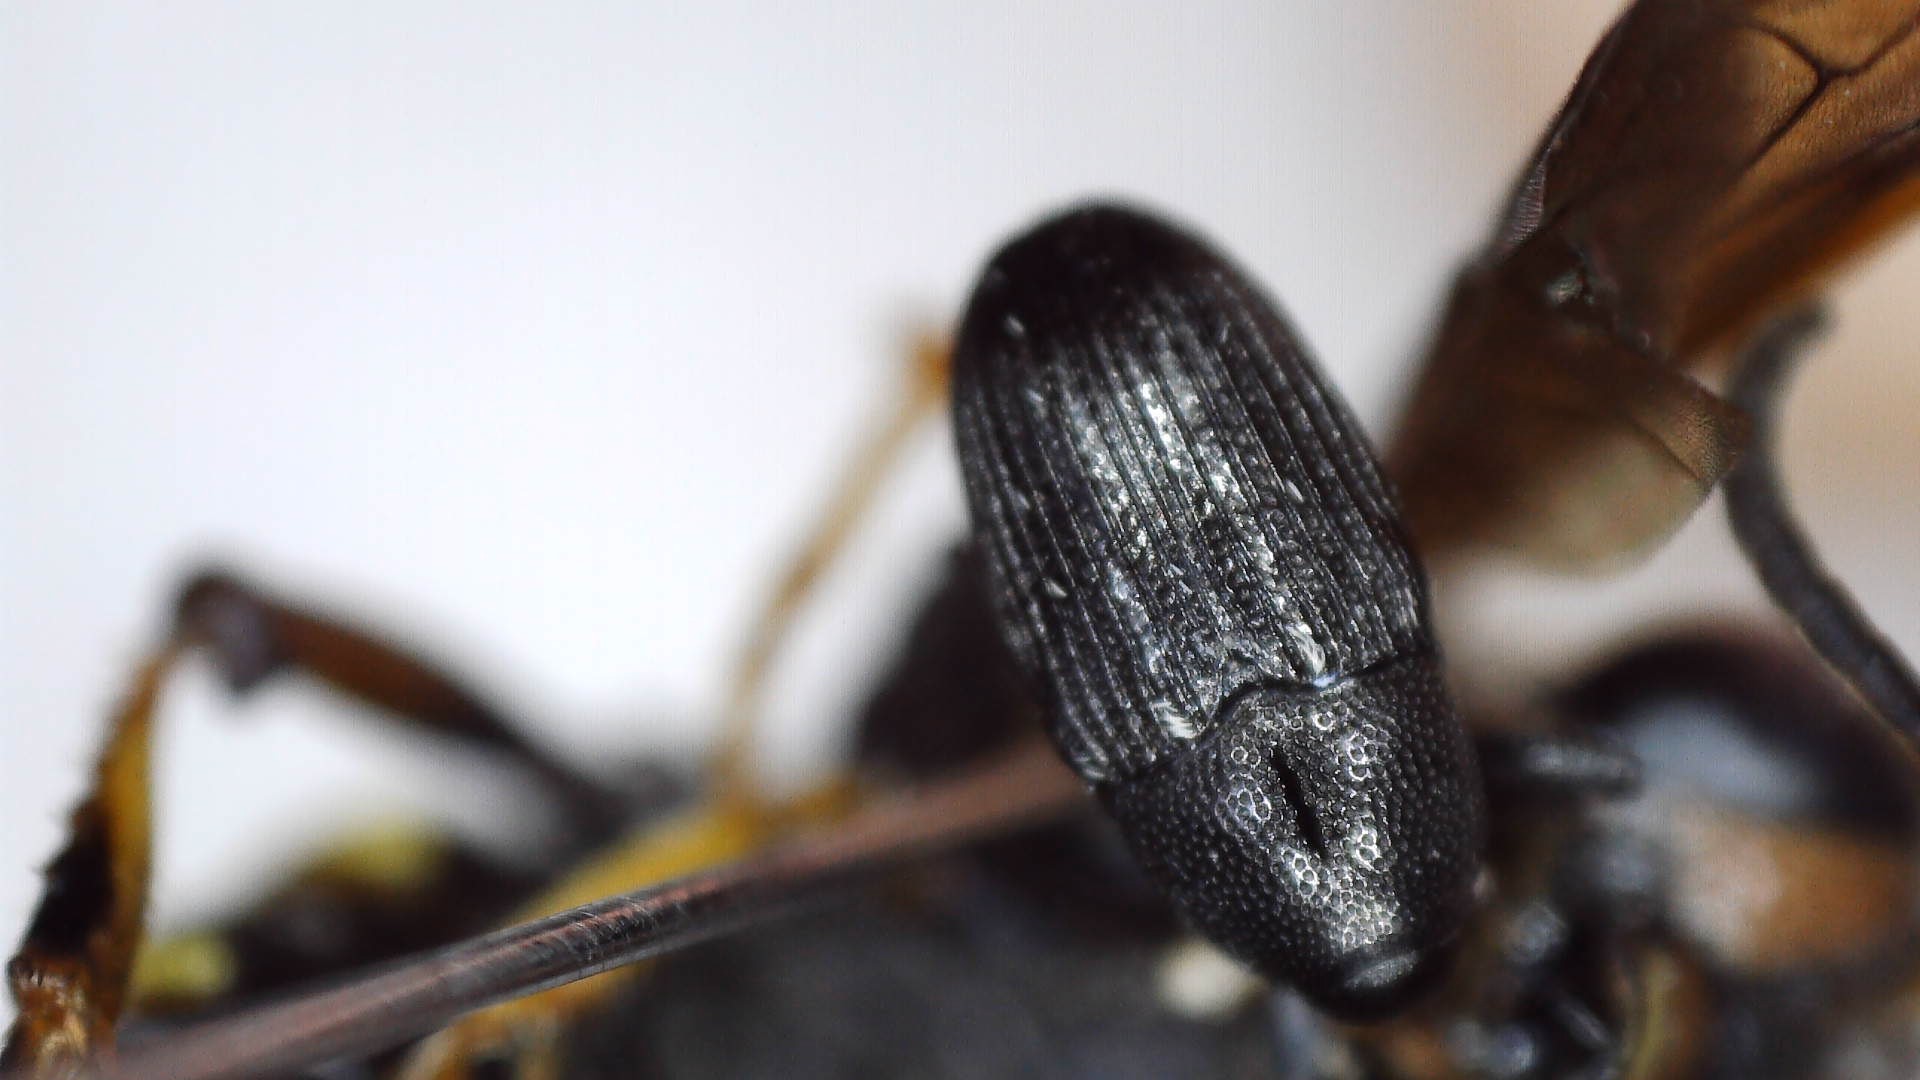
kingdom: Animalia
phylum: Arthropoda
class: Insecta
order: Coleoptera
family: Curculionidae
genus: Pseudobaris
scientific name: Pseudobaris nigrina
